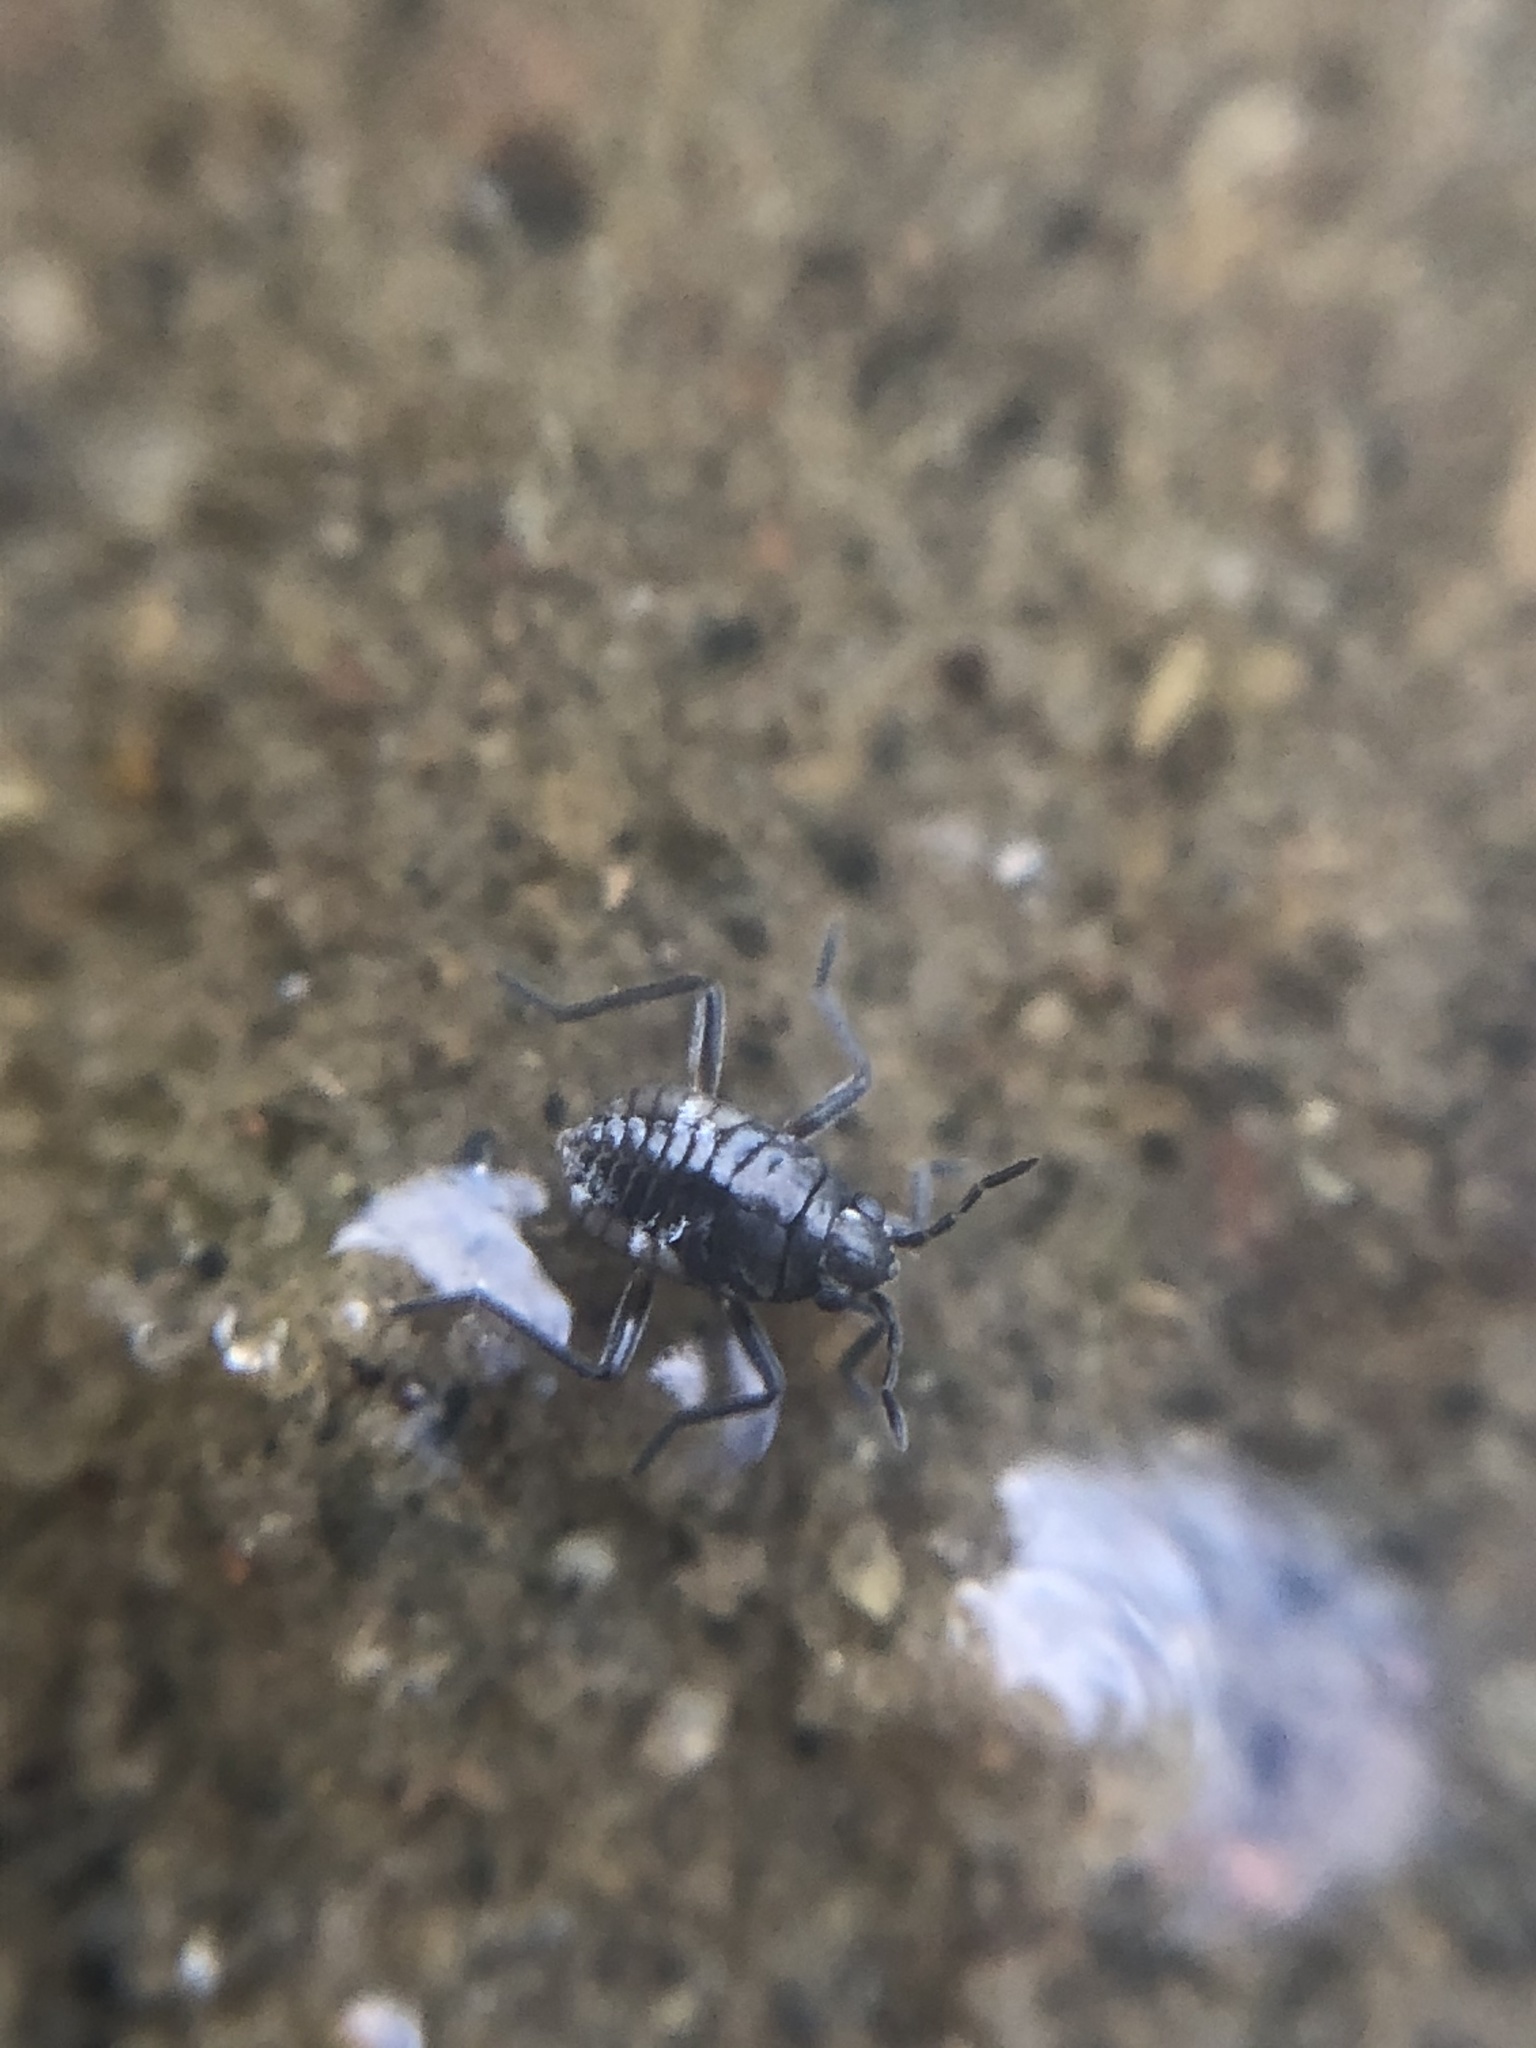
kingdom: Animalia
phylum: Arthropoda
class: Insecta
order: Hemiptera
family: Veliidae
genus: Microvelia
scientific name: Microvelia
